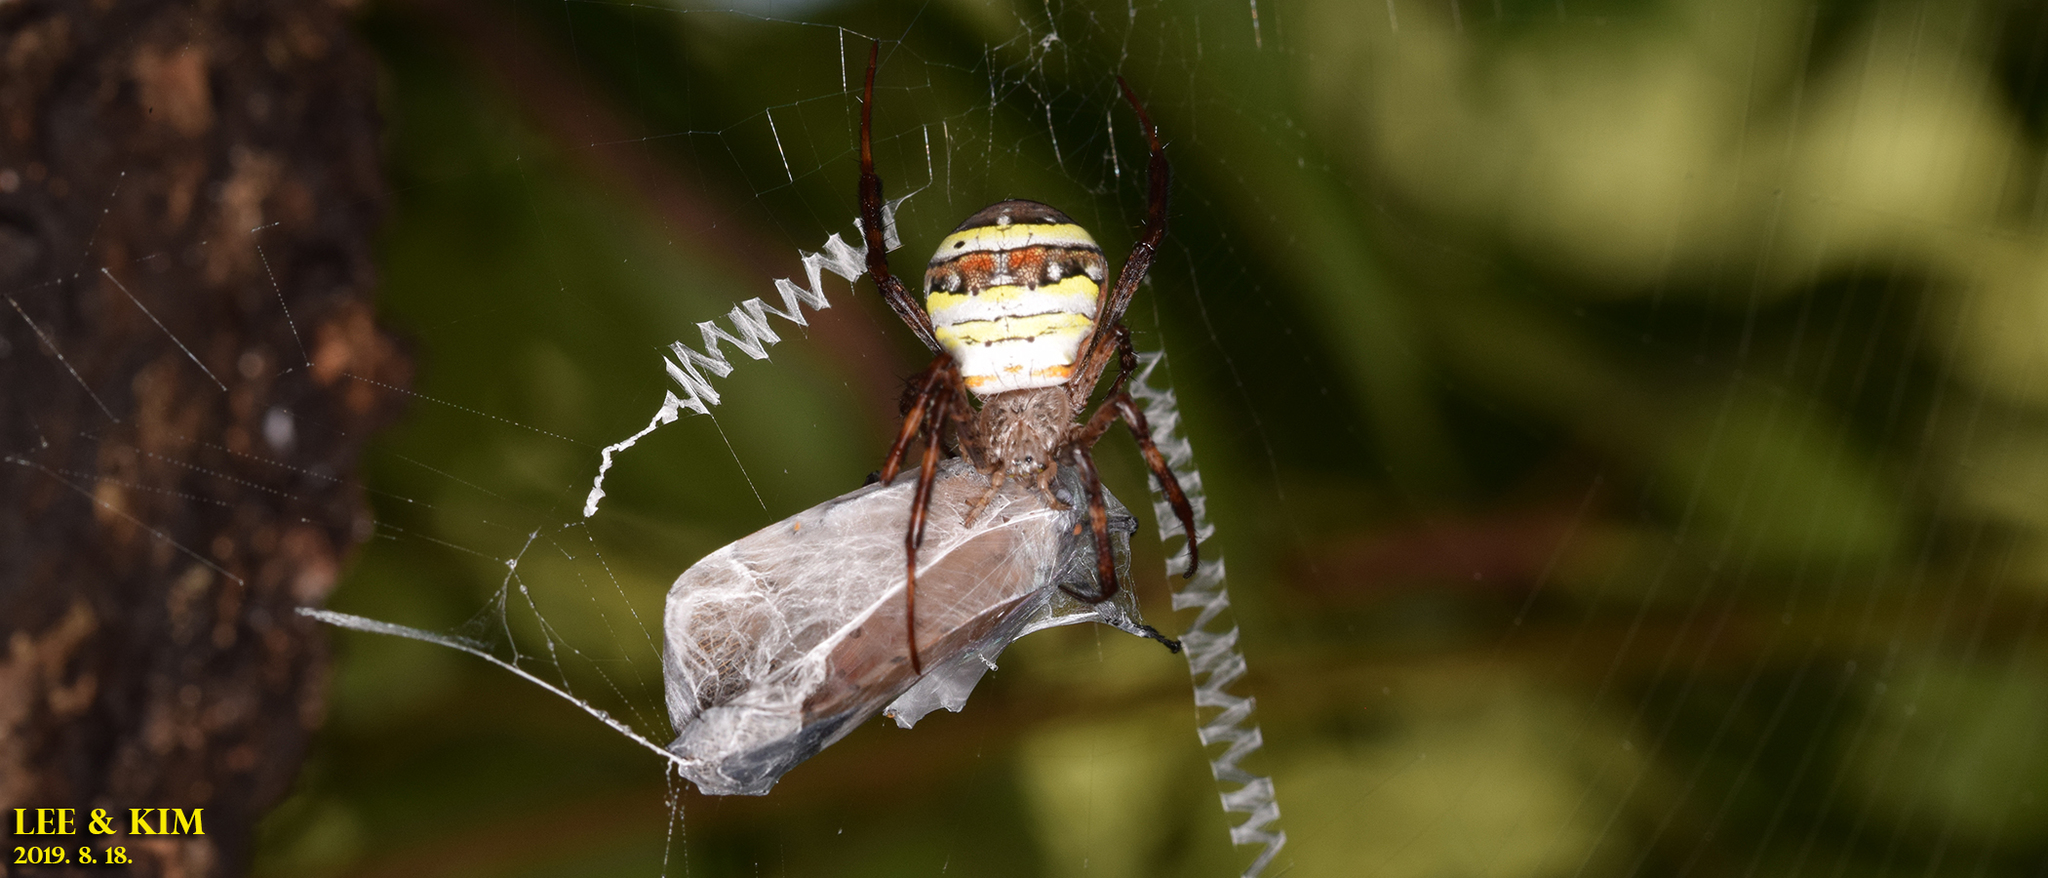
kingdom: Animalia
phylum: Arthropoda
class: Arachnida
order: Araneae
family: Araneidae
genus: Argiope
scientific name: Argiope minuta
